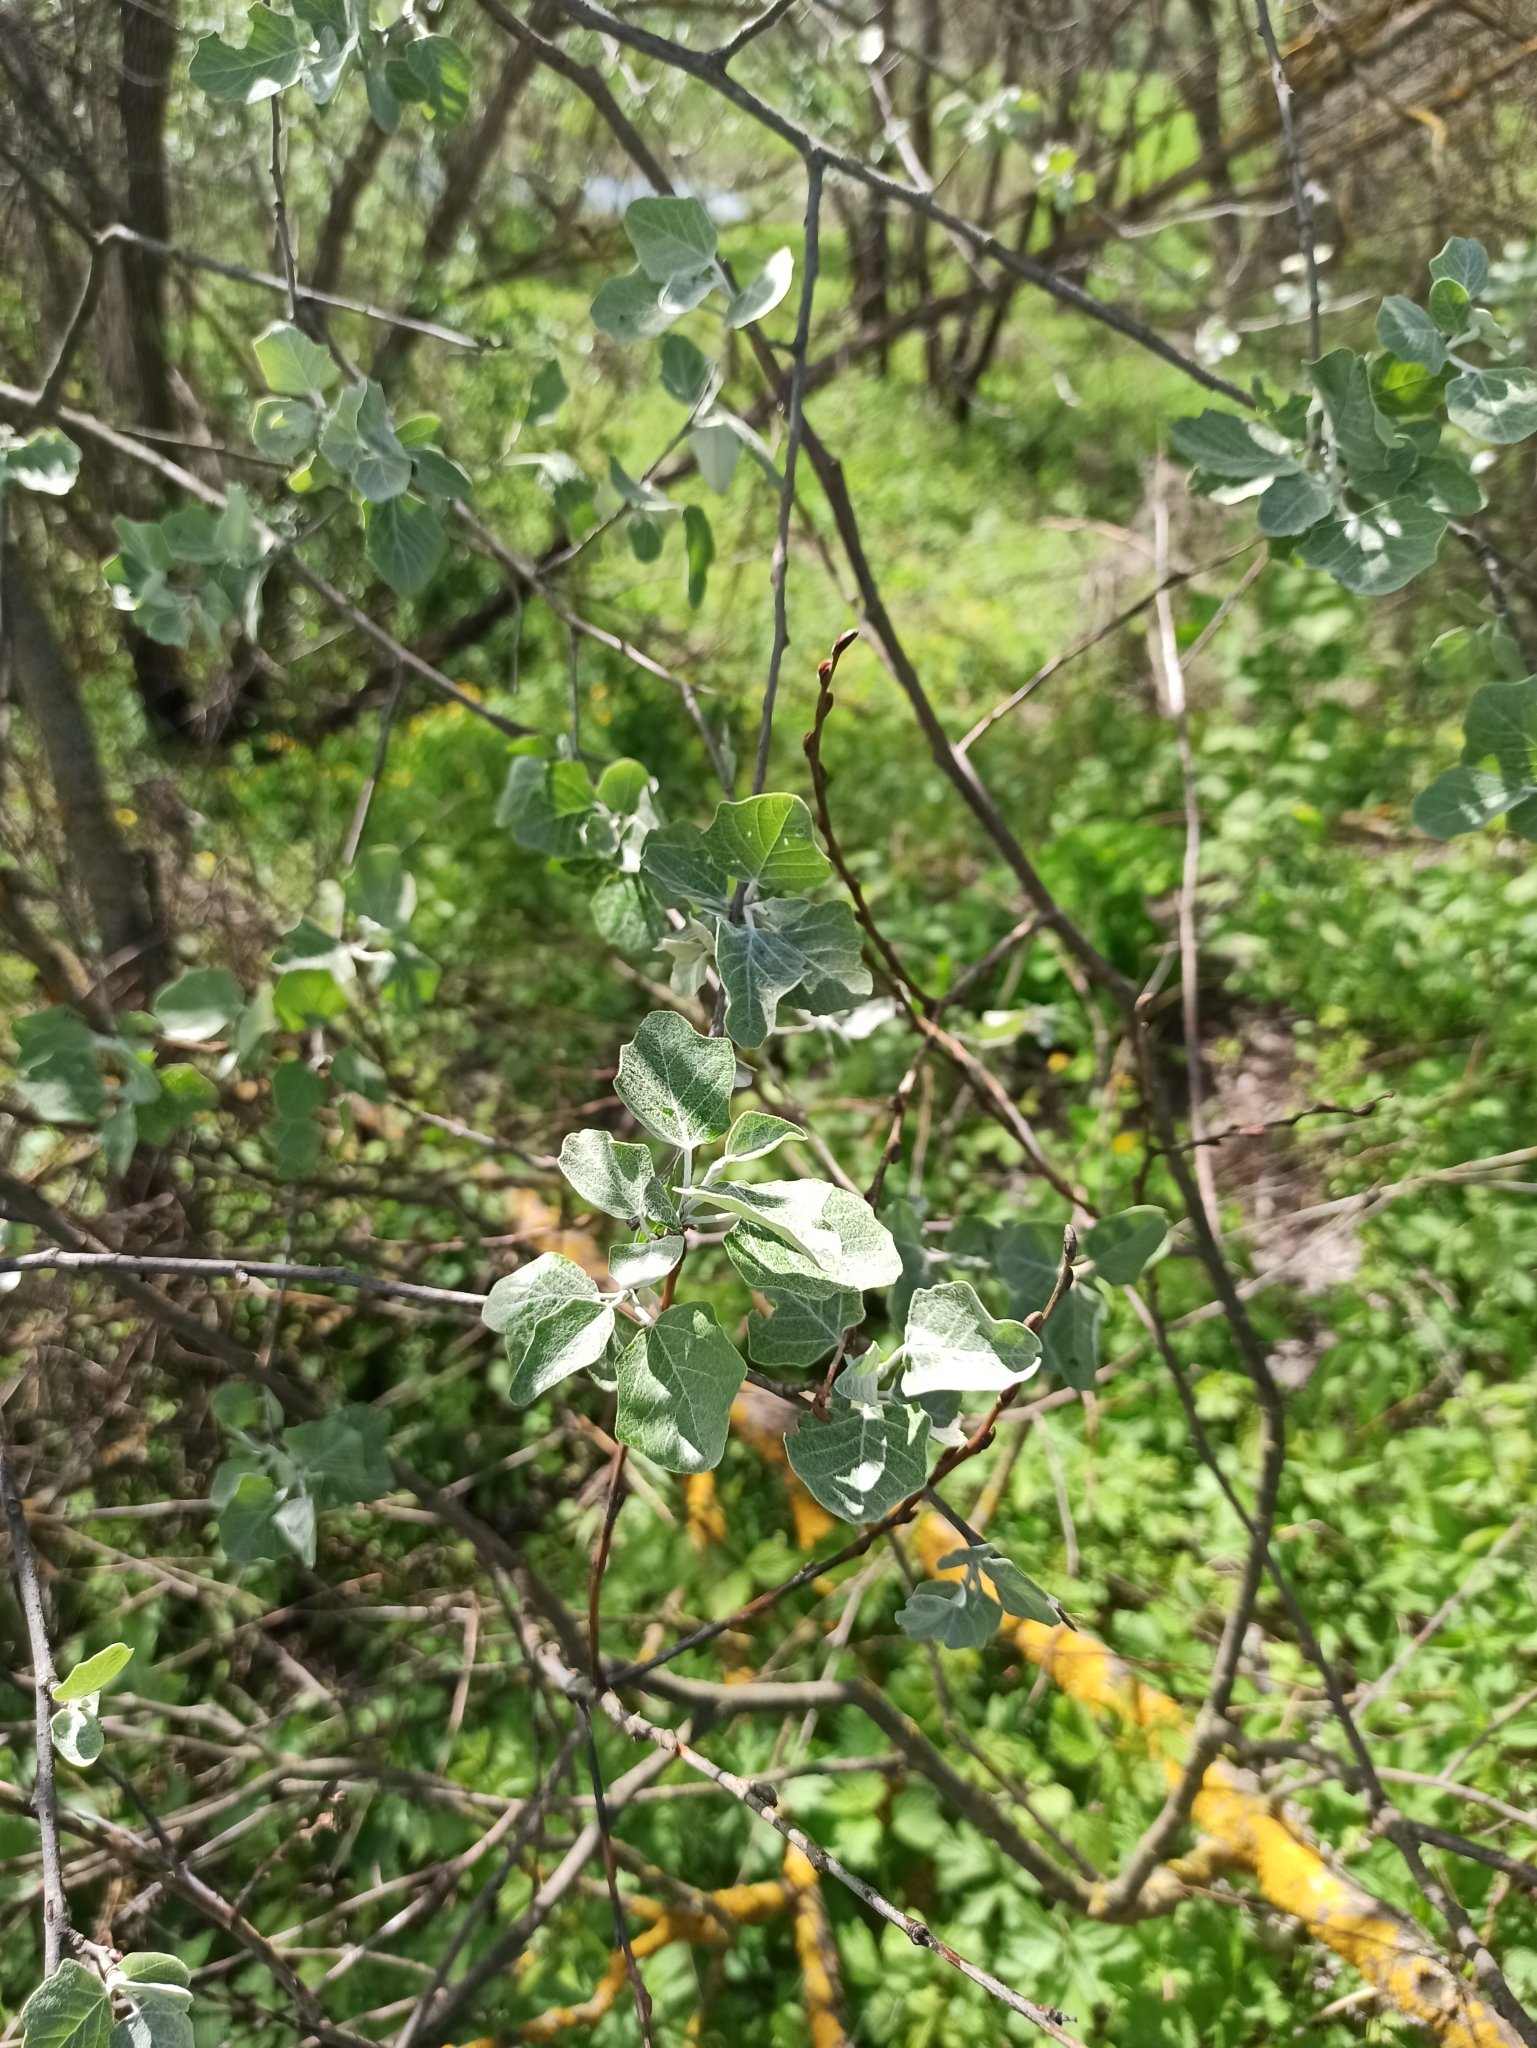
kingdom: Plantae
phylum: Tracheophyta
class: Magnoliopsida
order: Malpighiales
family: Salicaceae
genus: Populus
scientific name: Populus alba
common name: White poplar
